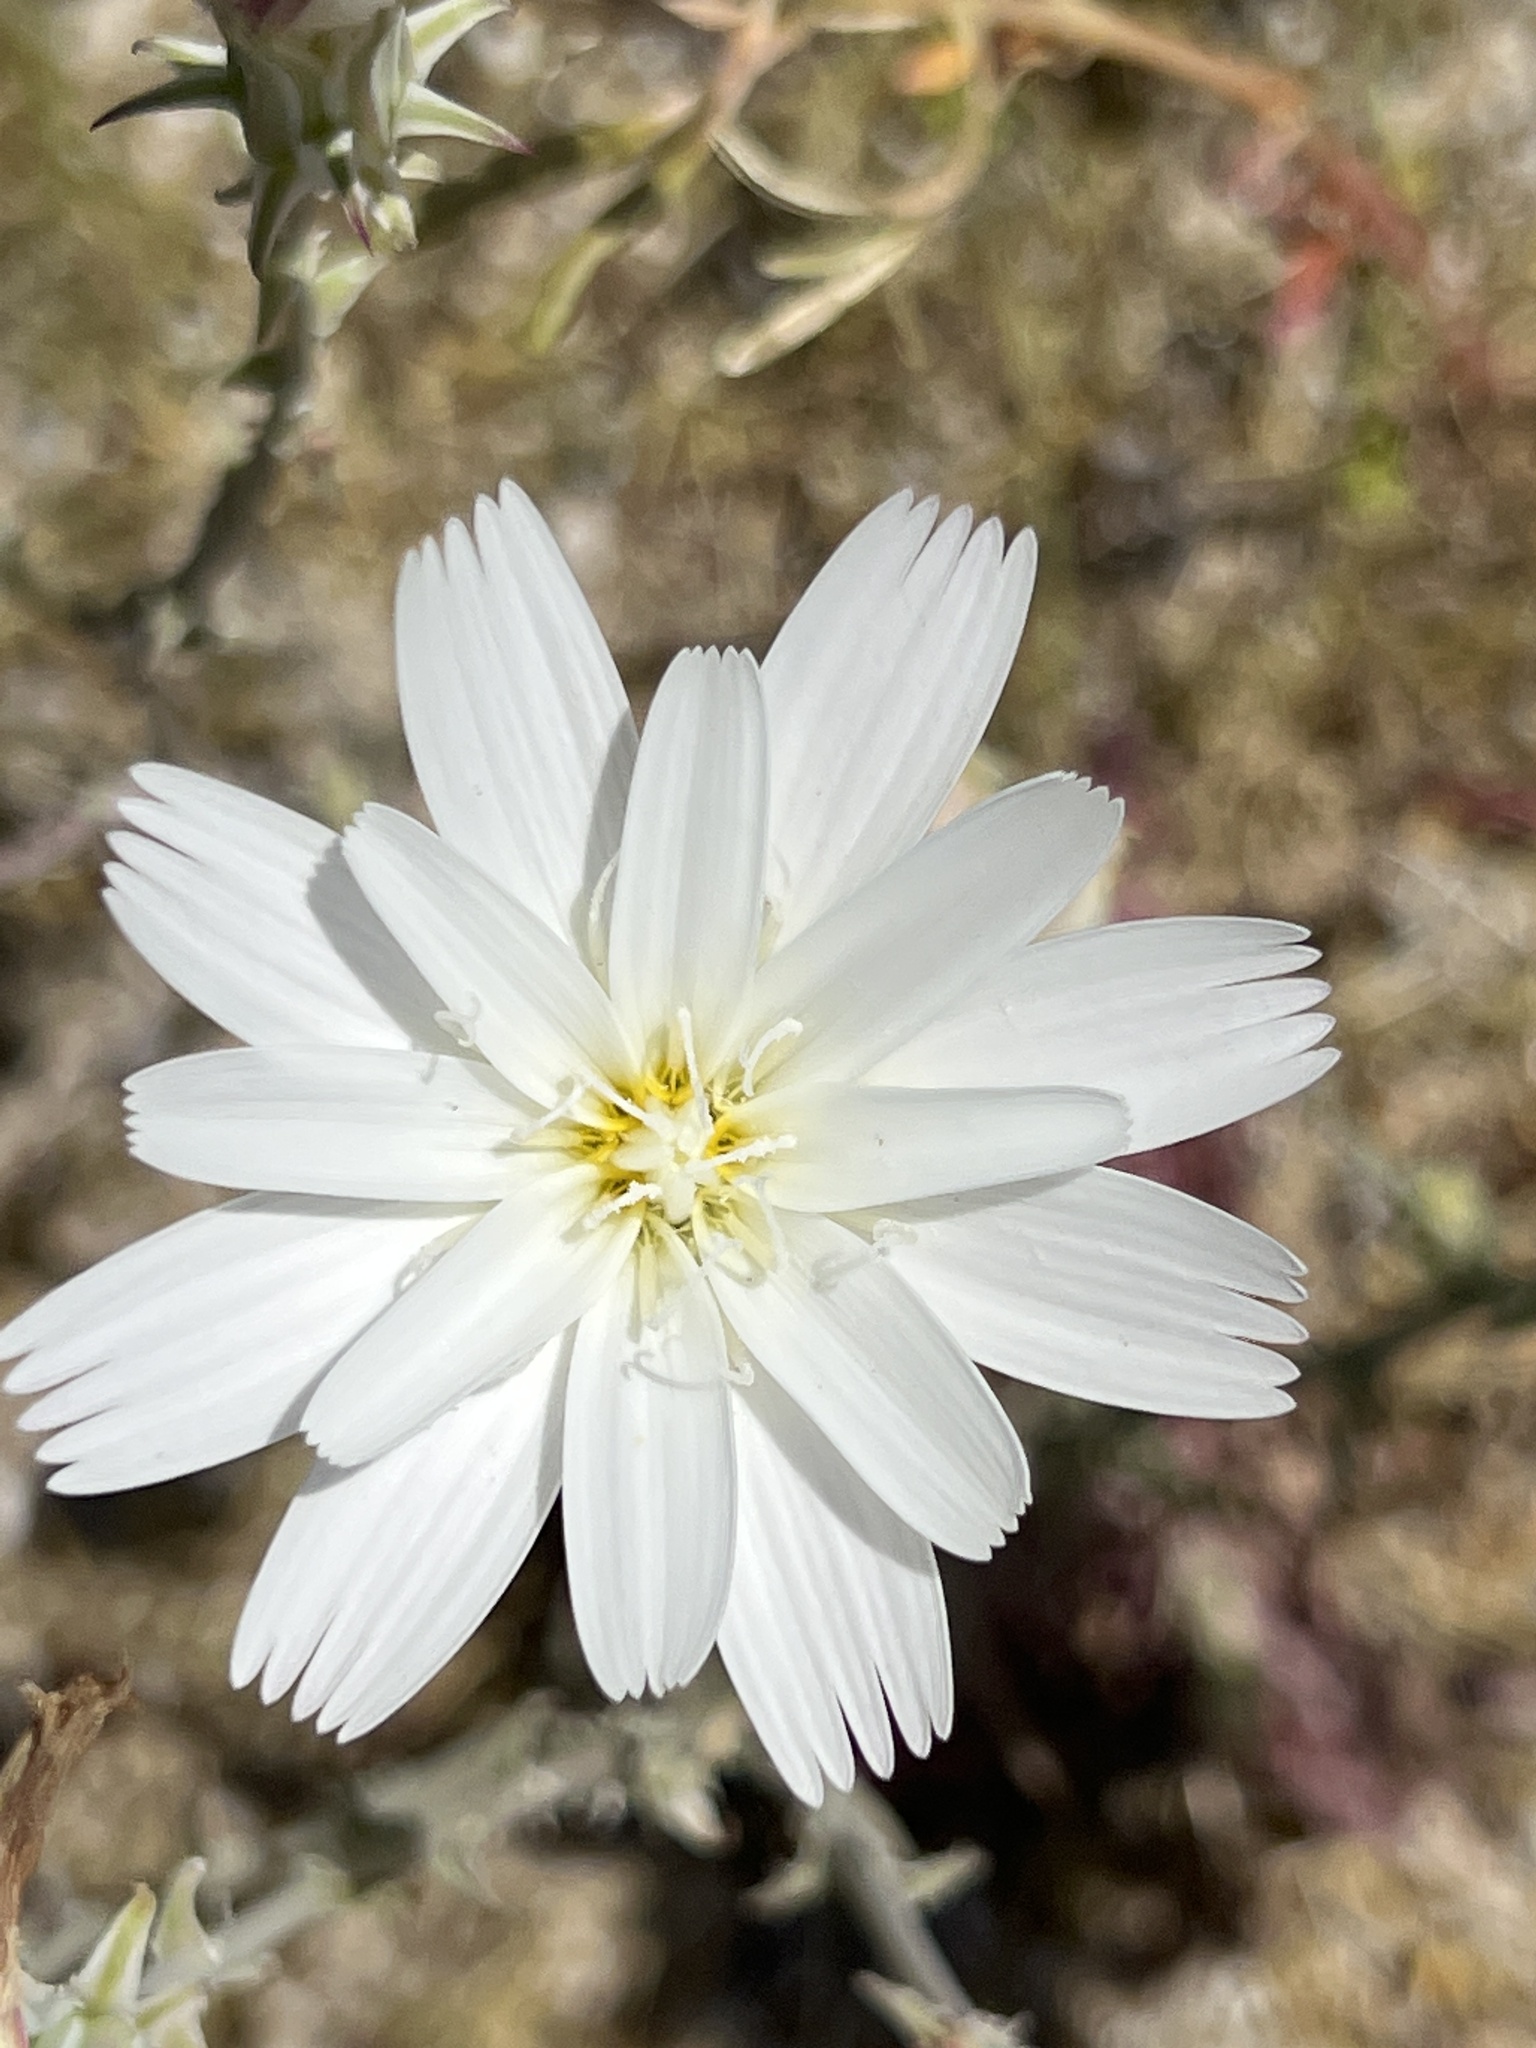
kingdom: Plantae
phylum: Tracheophyta
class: Magnoliopsida
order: Asterales
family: Asteraceae
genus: Rafinesquia
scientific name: Rafinesquia neomexicana
